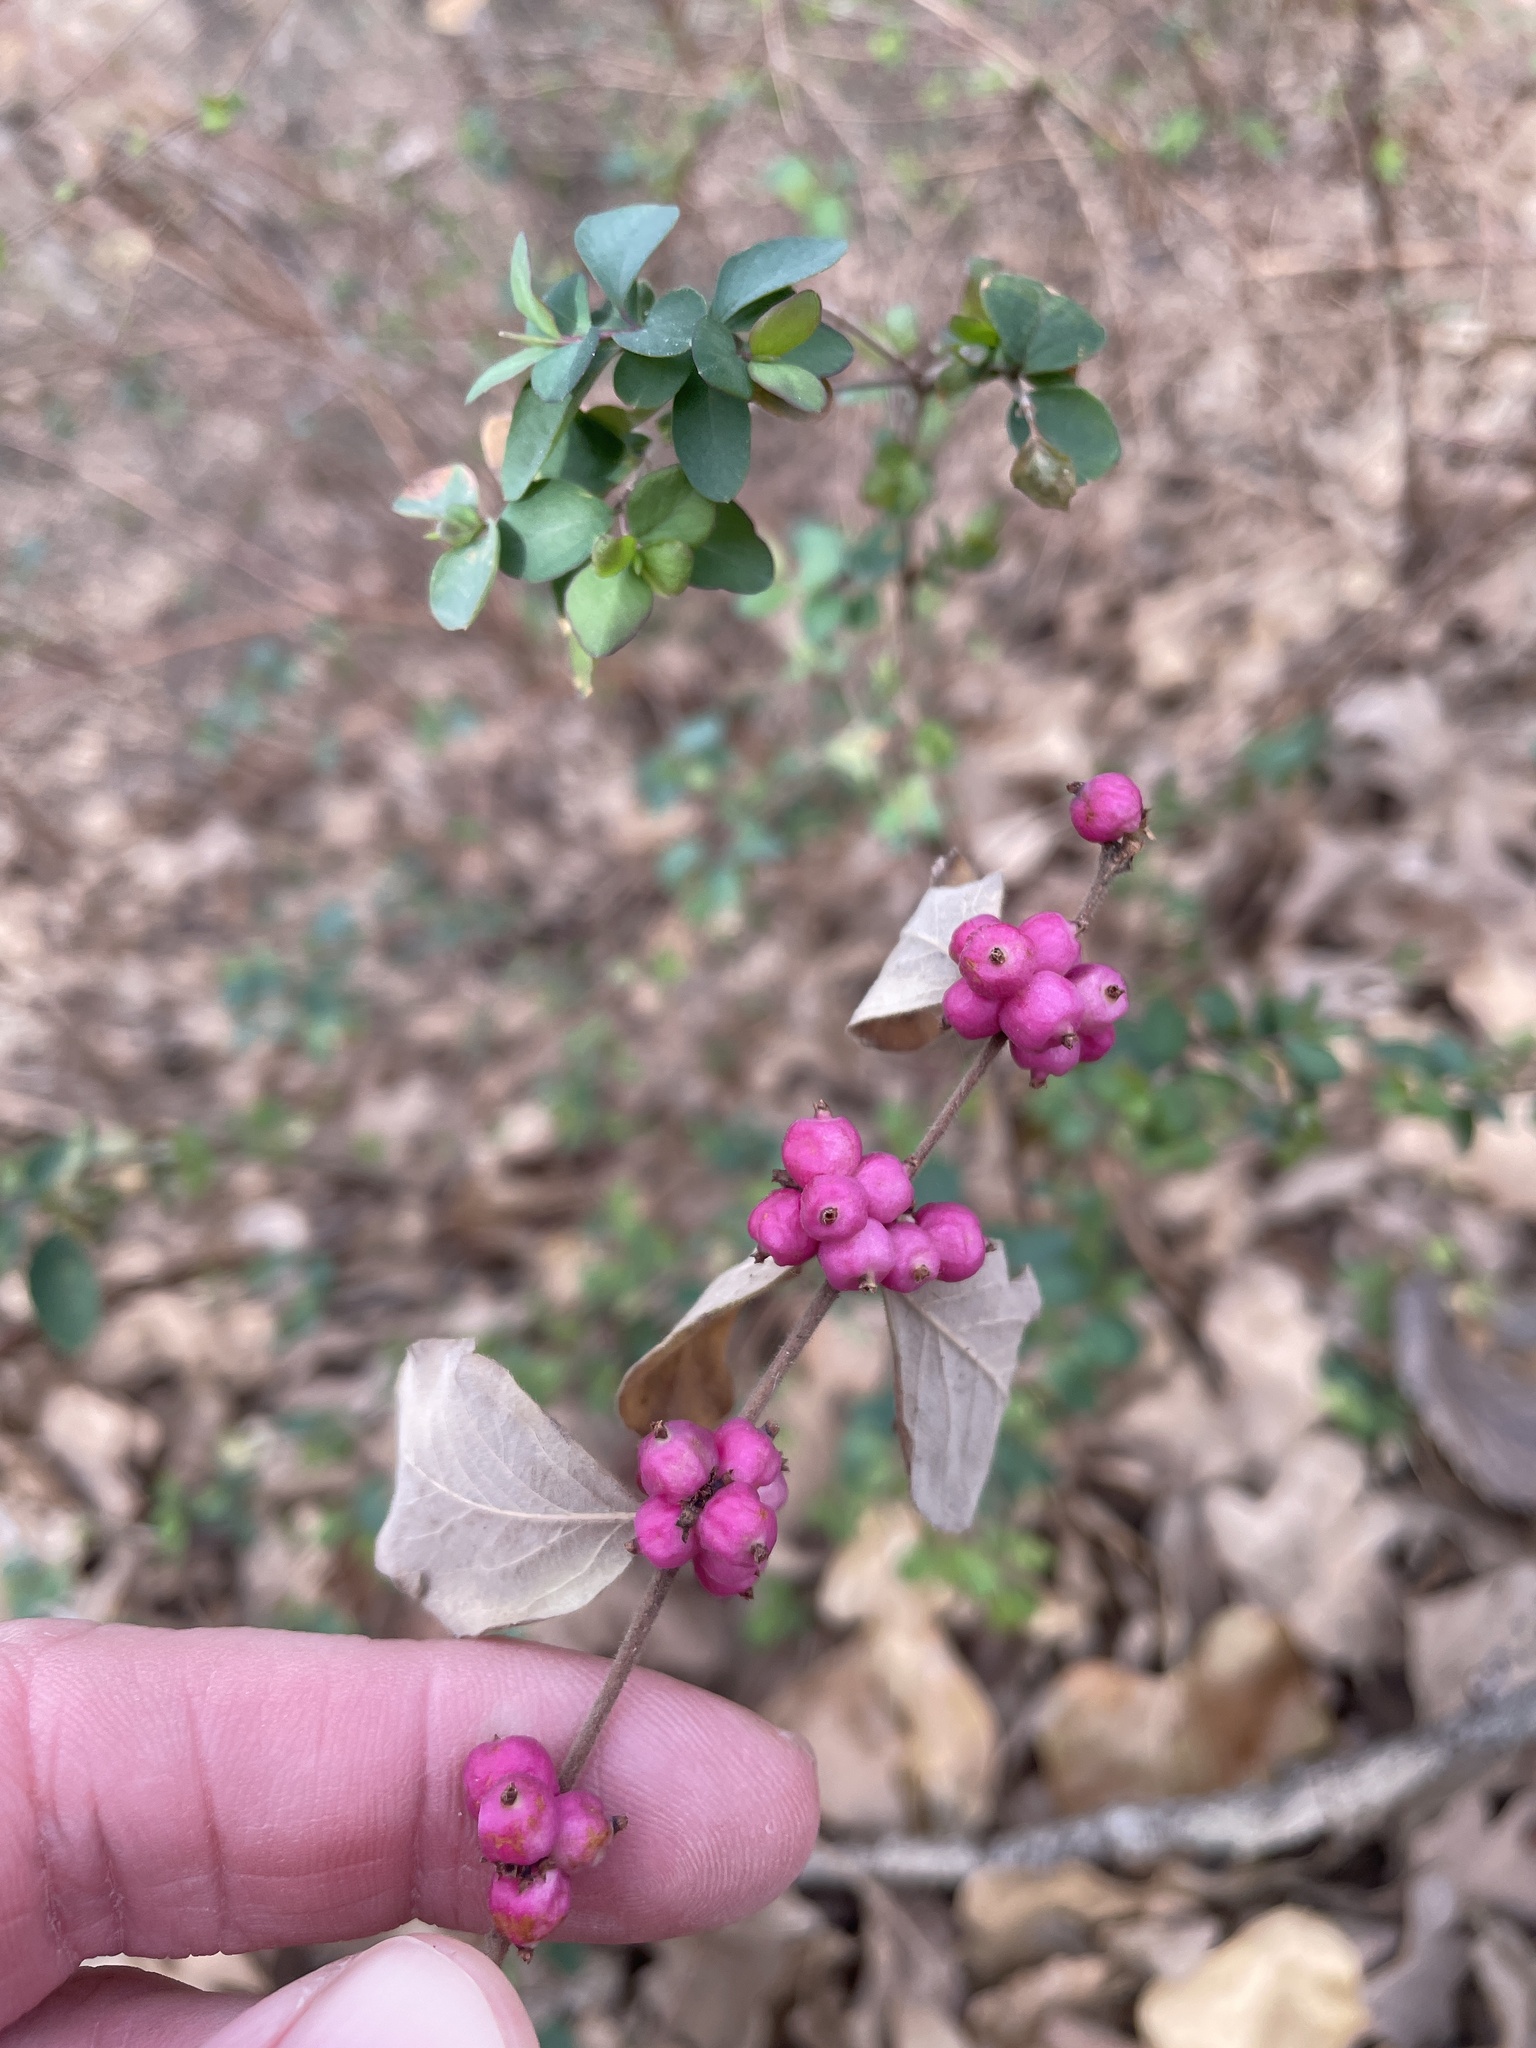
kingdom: Plantae
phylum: Tracheophyta
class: Magnoliopsida
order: Dipsacales
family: Caprifoliaceae
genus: Symphoricarpos
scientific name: Symphoricarpos orbiculatus
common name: Coralberry
